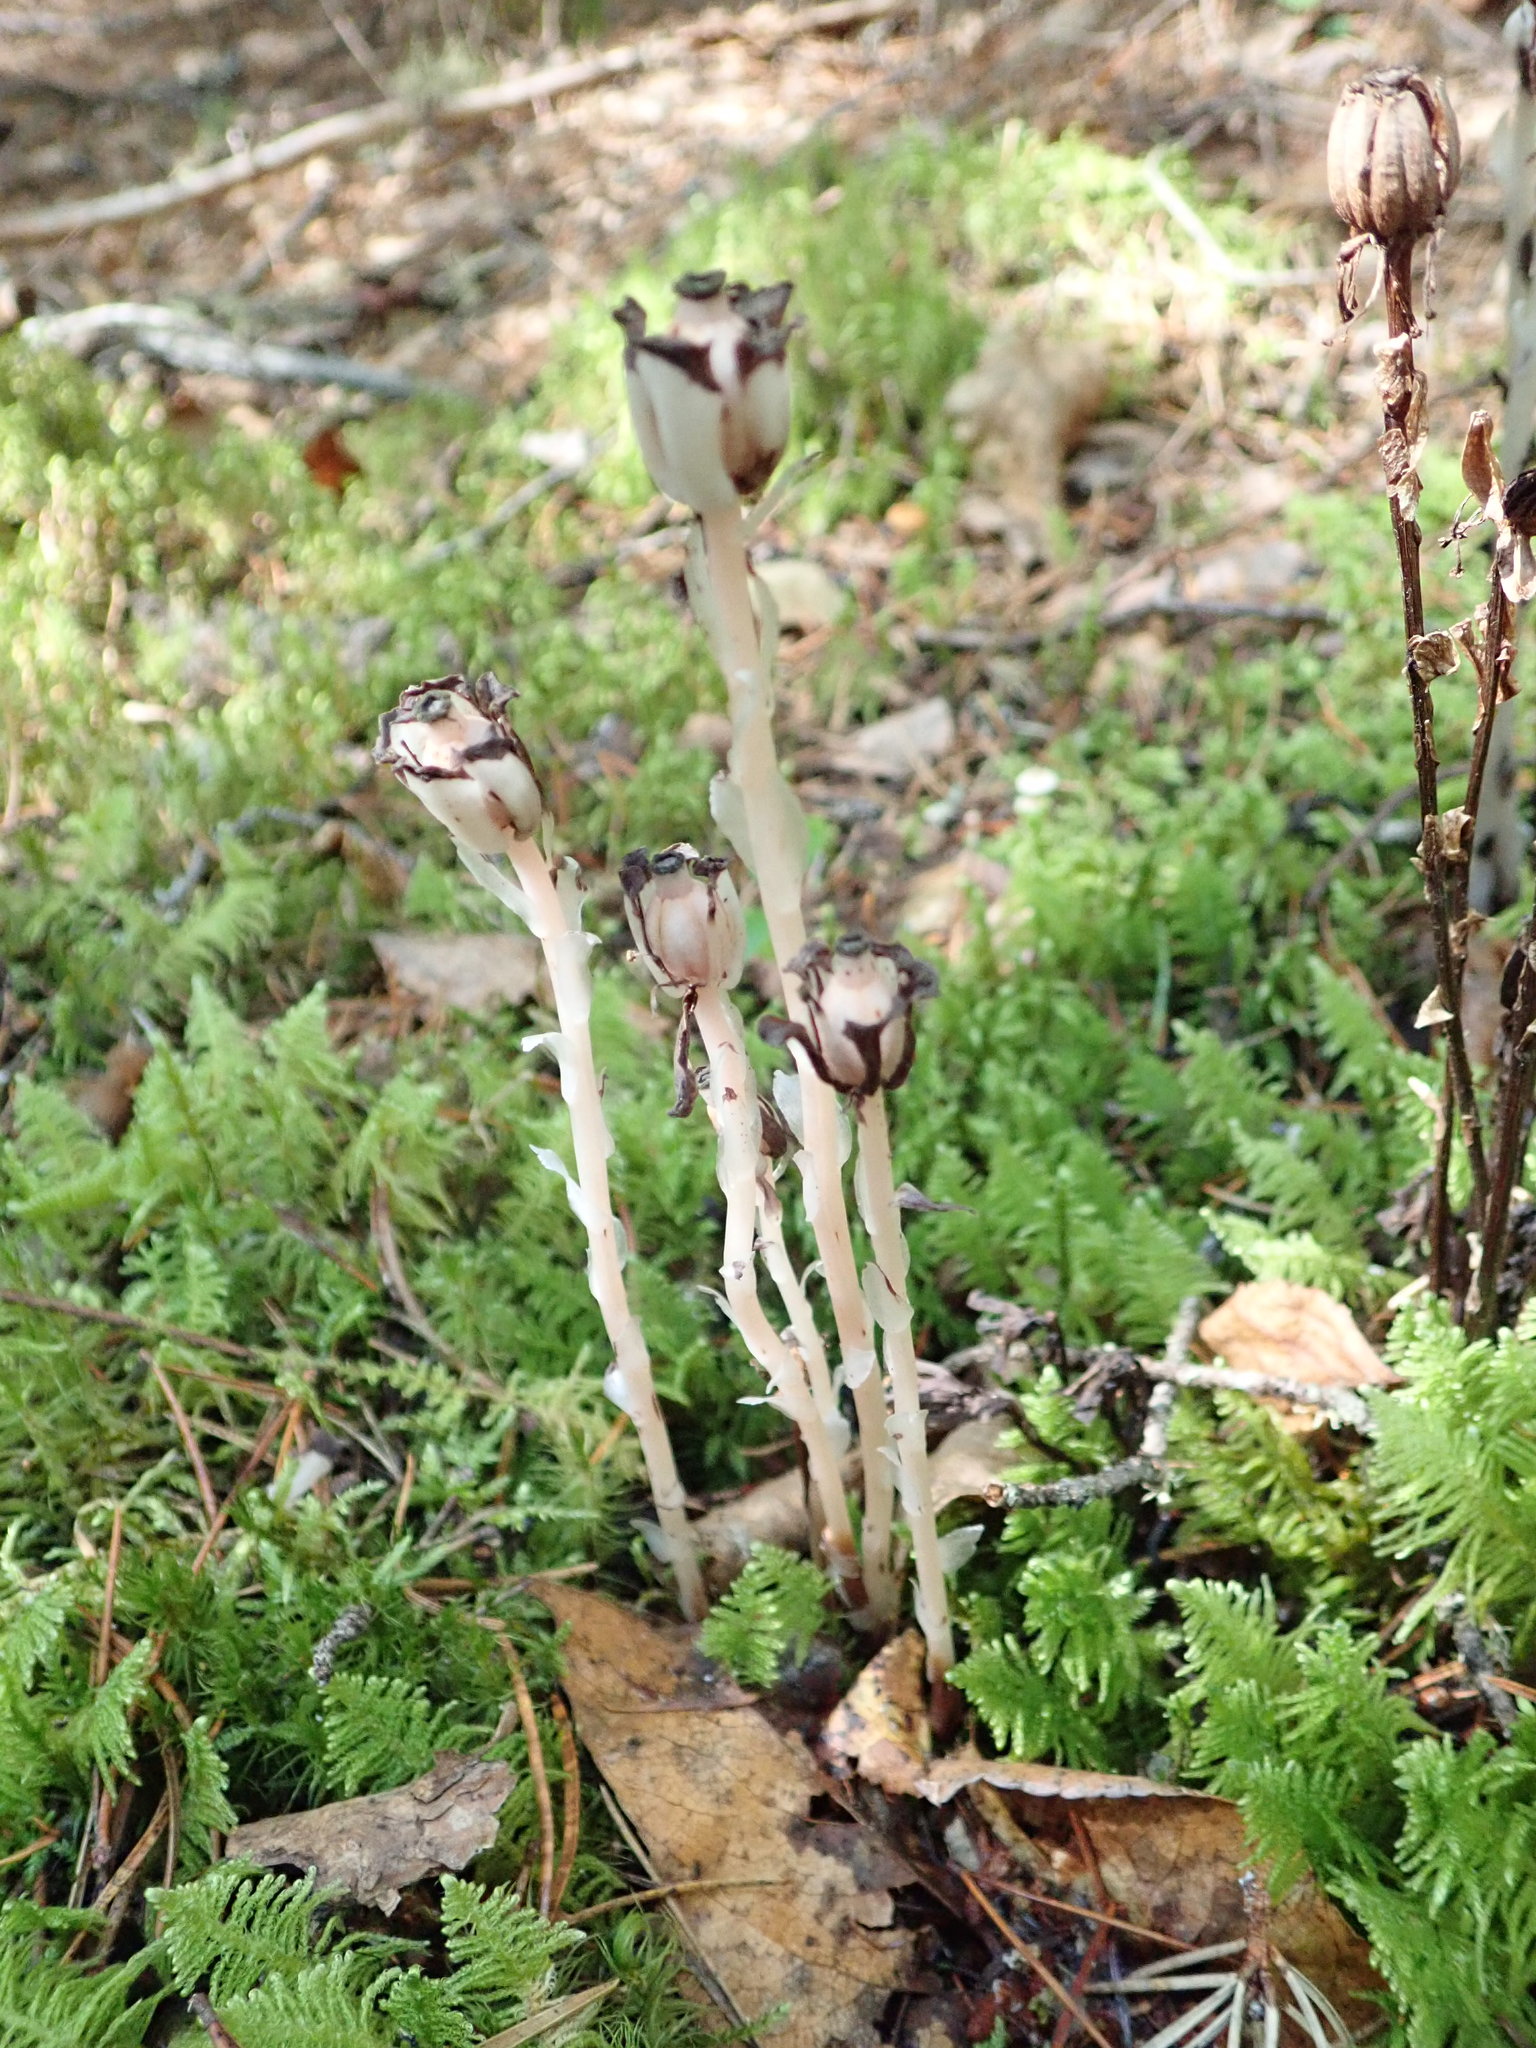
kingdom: Plantae
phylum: Tracheophyta
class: Magnoliopsida
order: Ericales
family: Ericaceae
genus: Monotropa
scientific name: Monotropa uniflora
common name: Convulsion root
